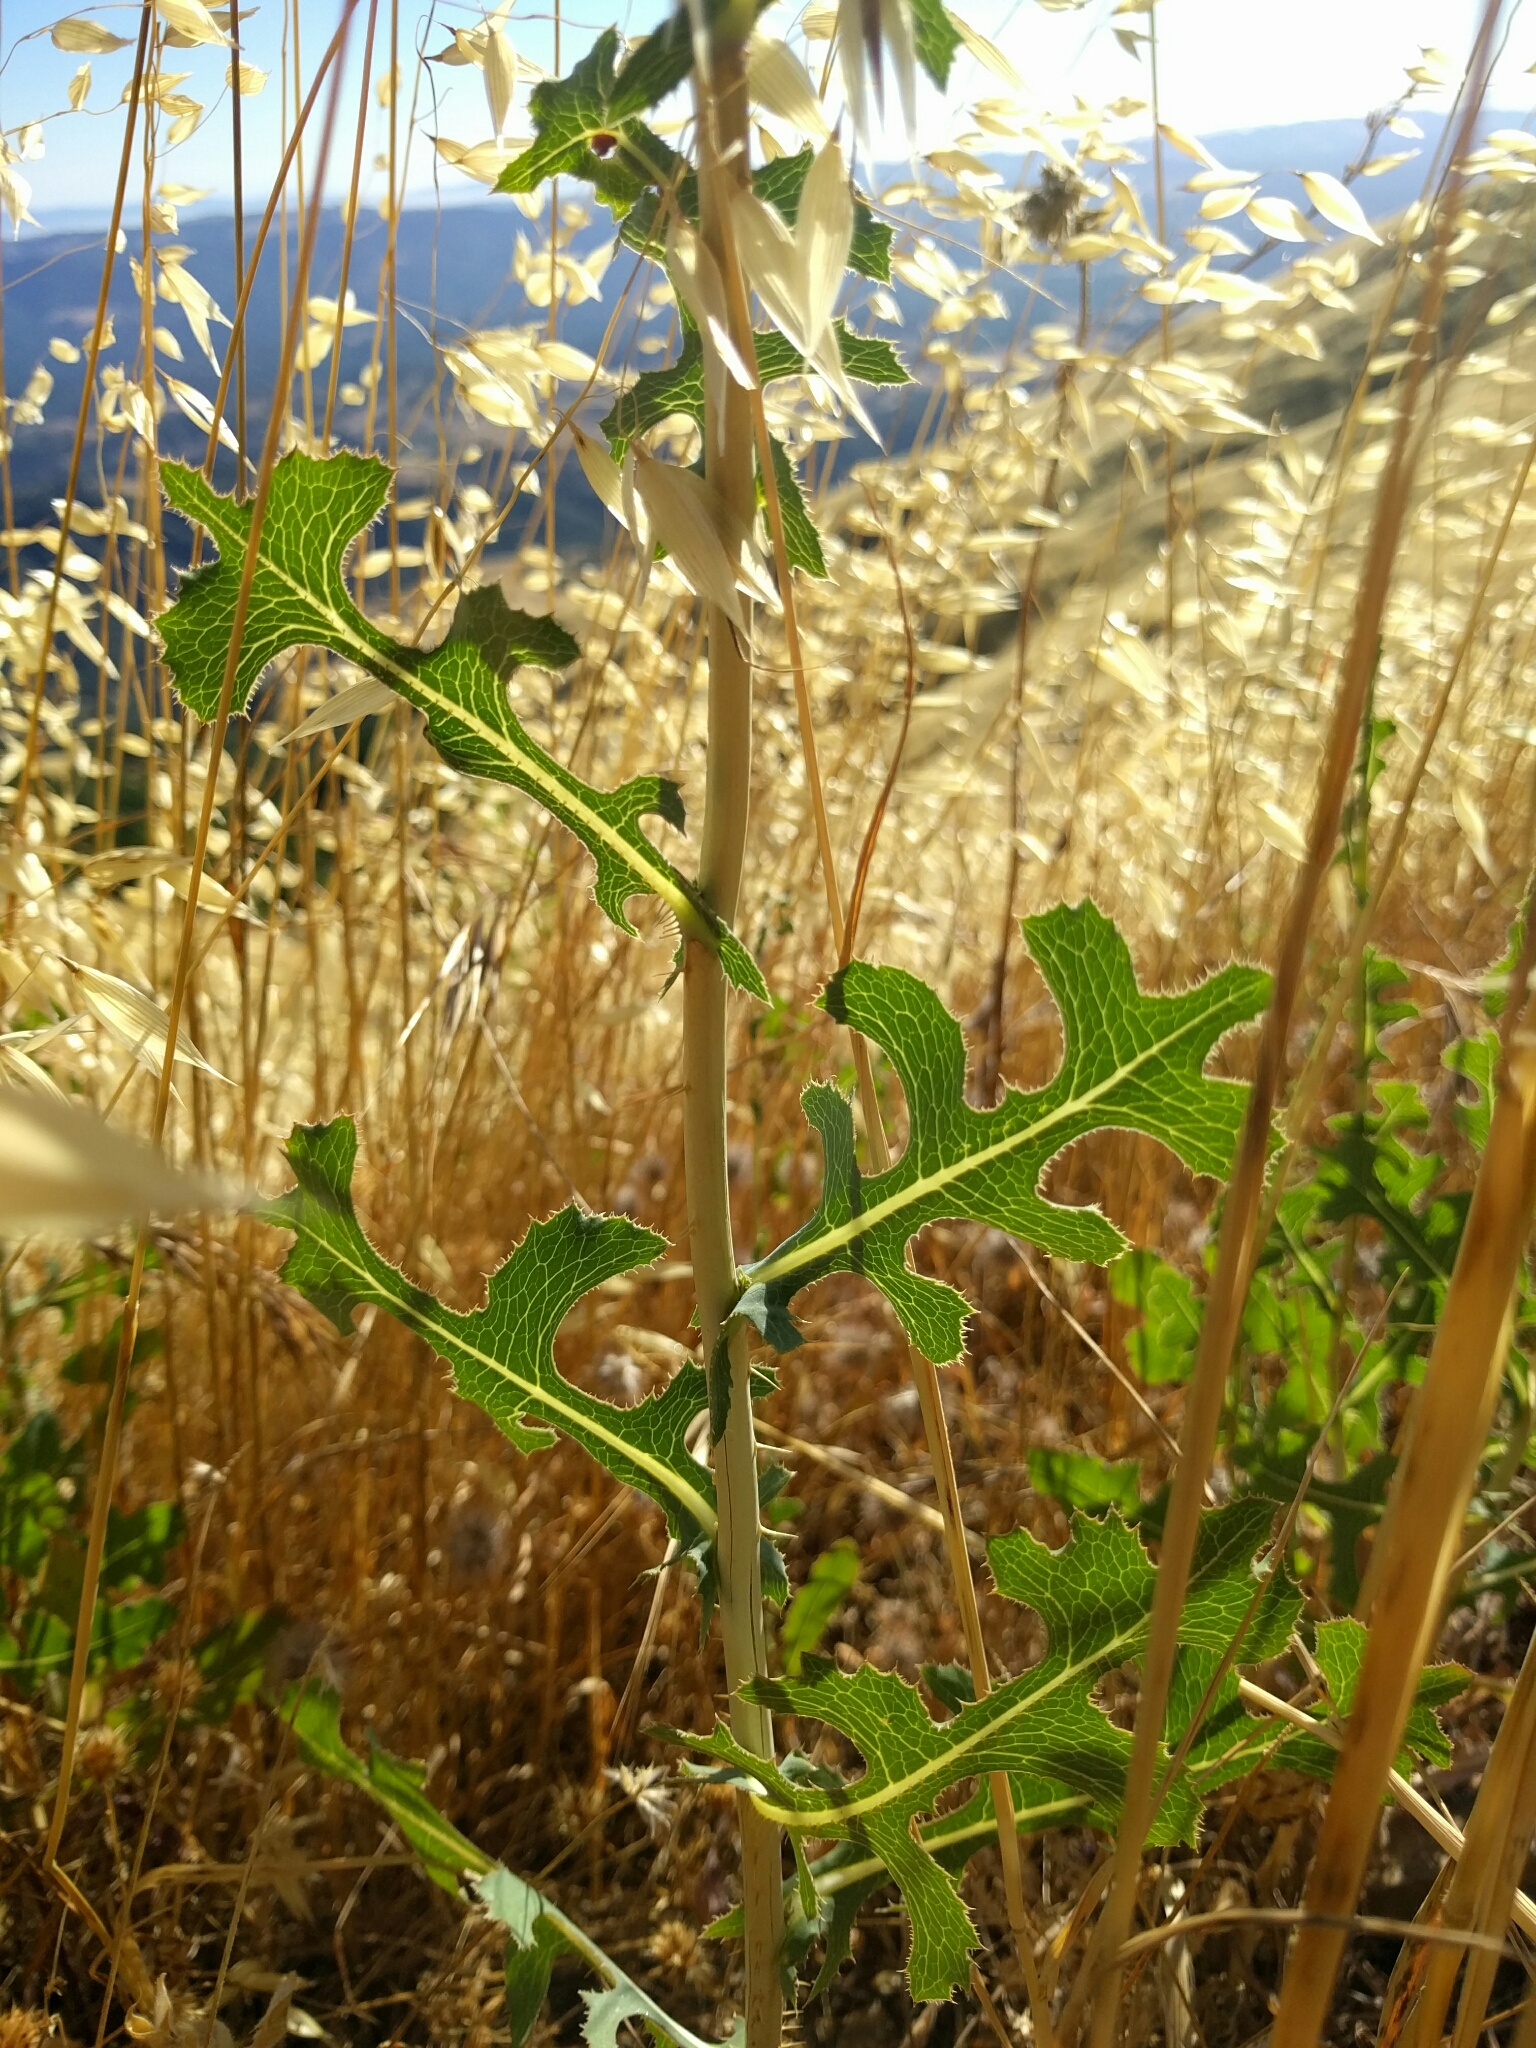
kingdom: Plantae
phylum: Tracheophyta
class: Magnoliopsida
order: Asterales
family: Asteraceae
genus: Lactuca
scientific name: Lactuca serriola
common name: Prickly lettuce
